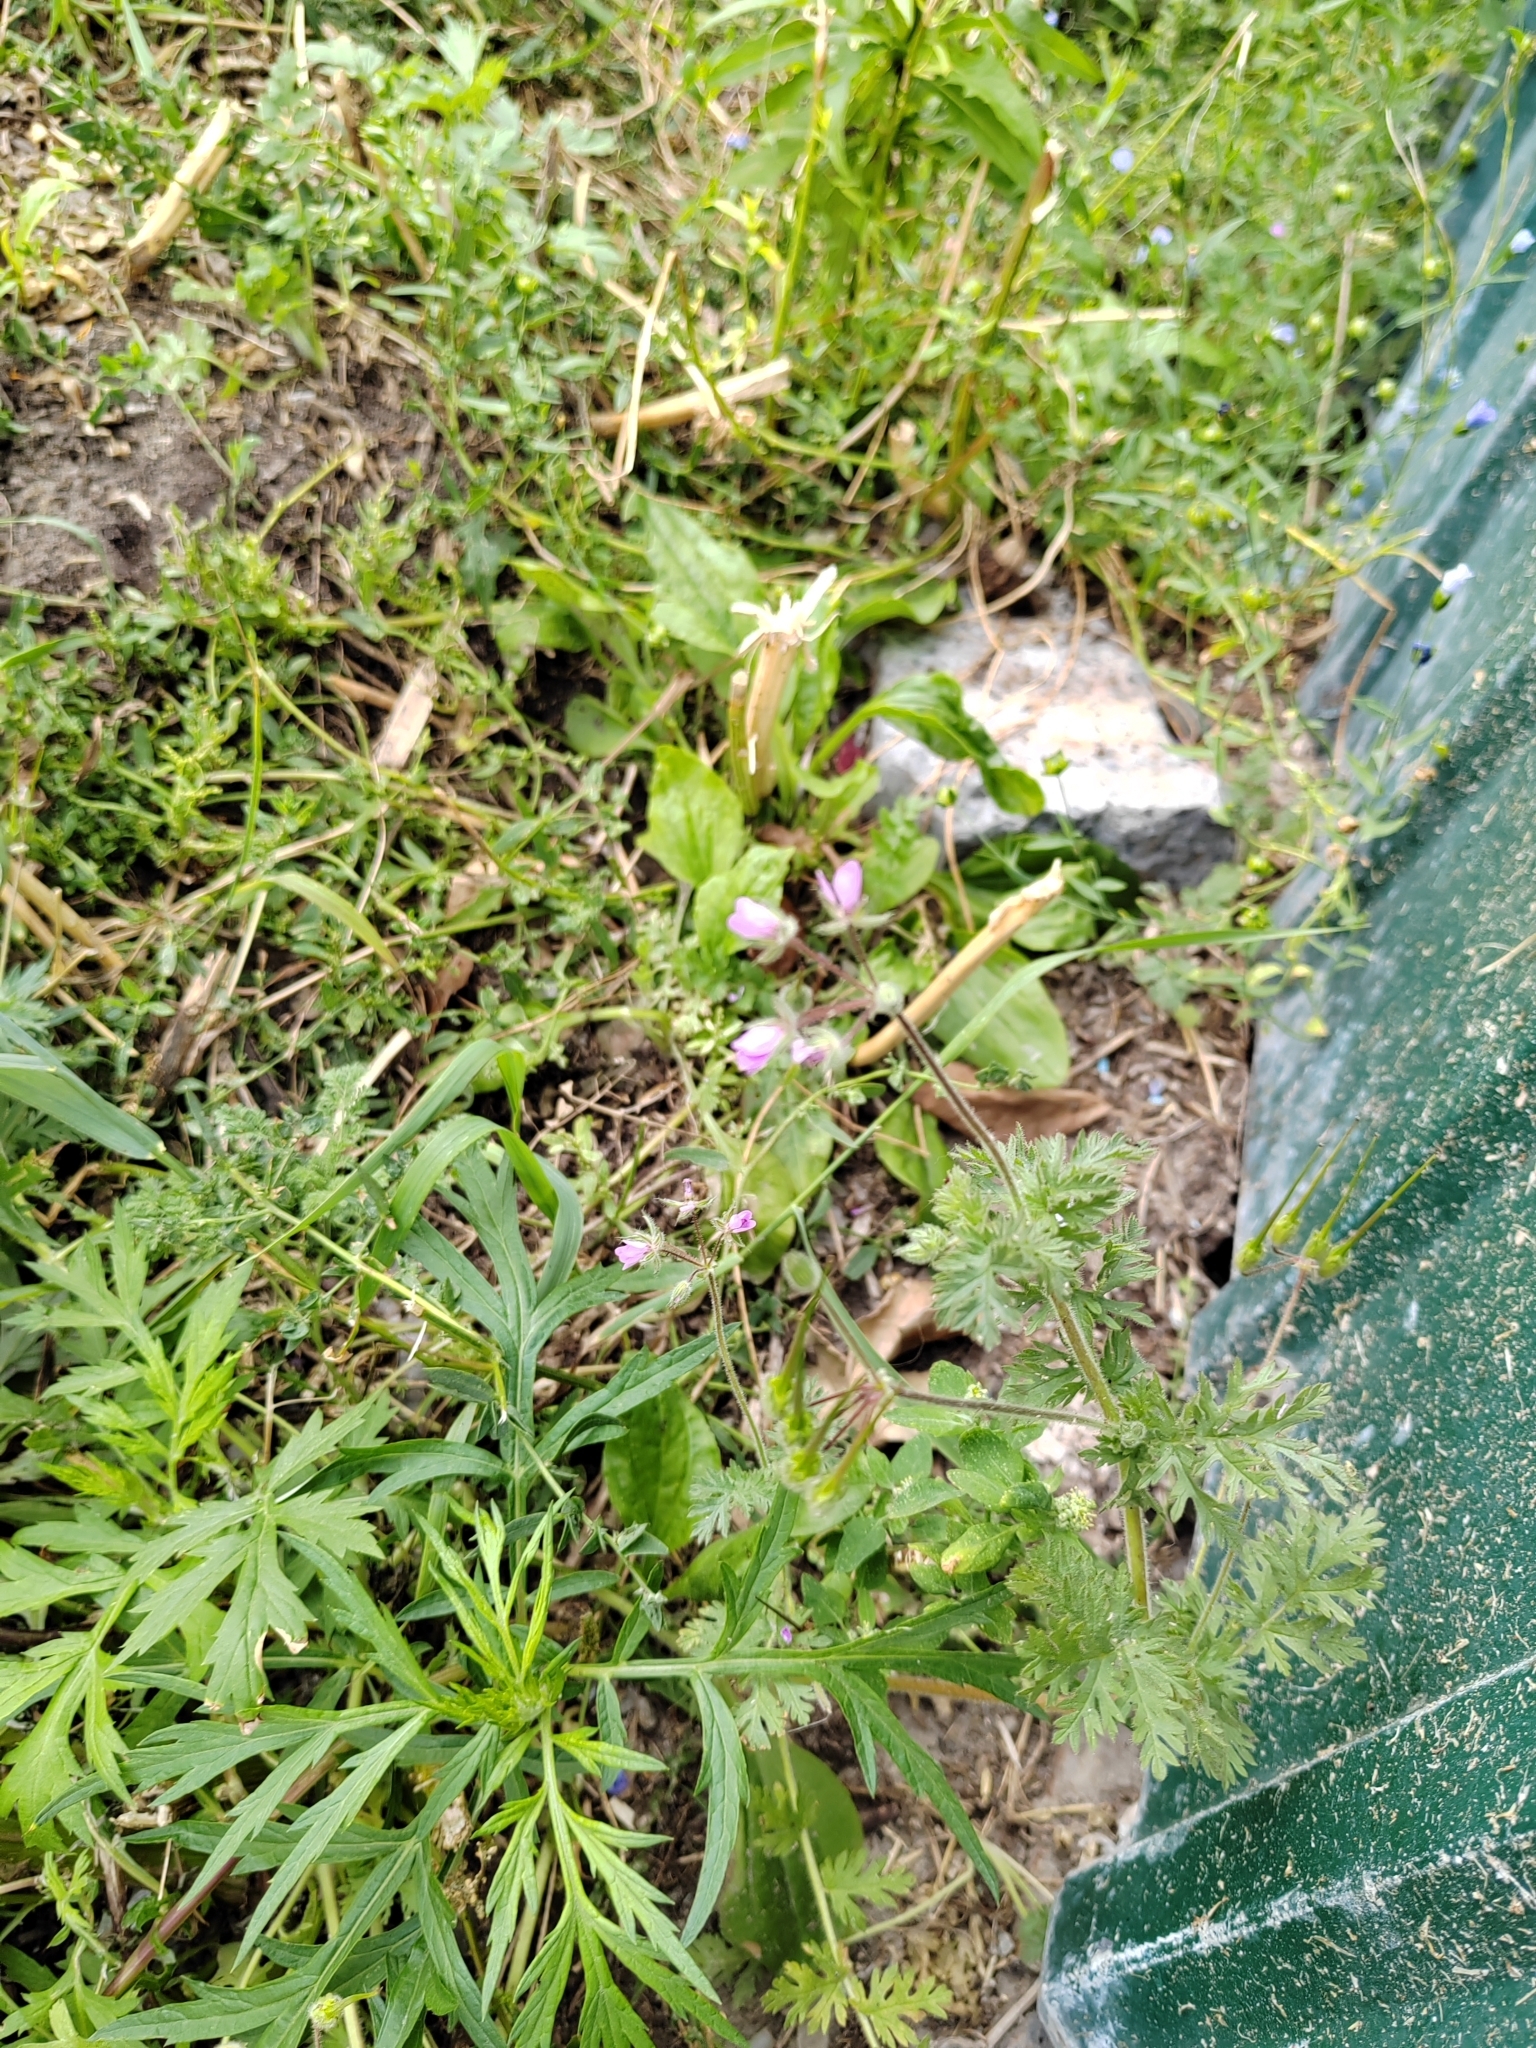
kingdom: Plantae
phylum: Tracheophyta
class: Magnoliopsida
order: Geraniales
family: Geraniaceae
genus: Erodium
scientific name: Erodium cicutarium
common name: Common stork's-bill
